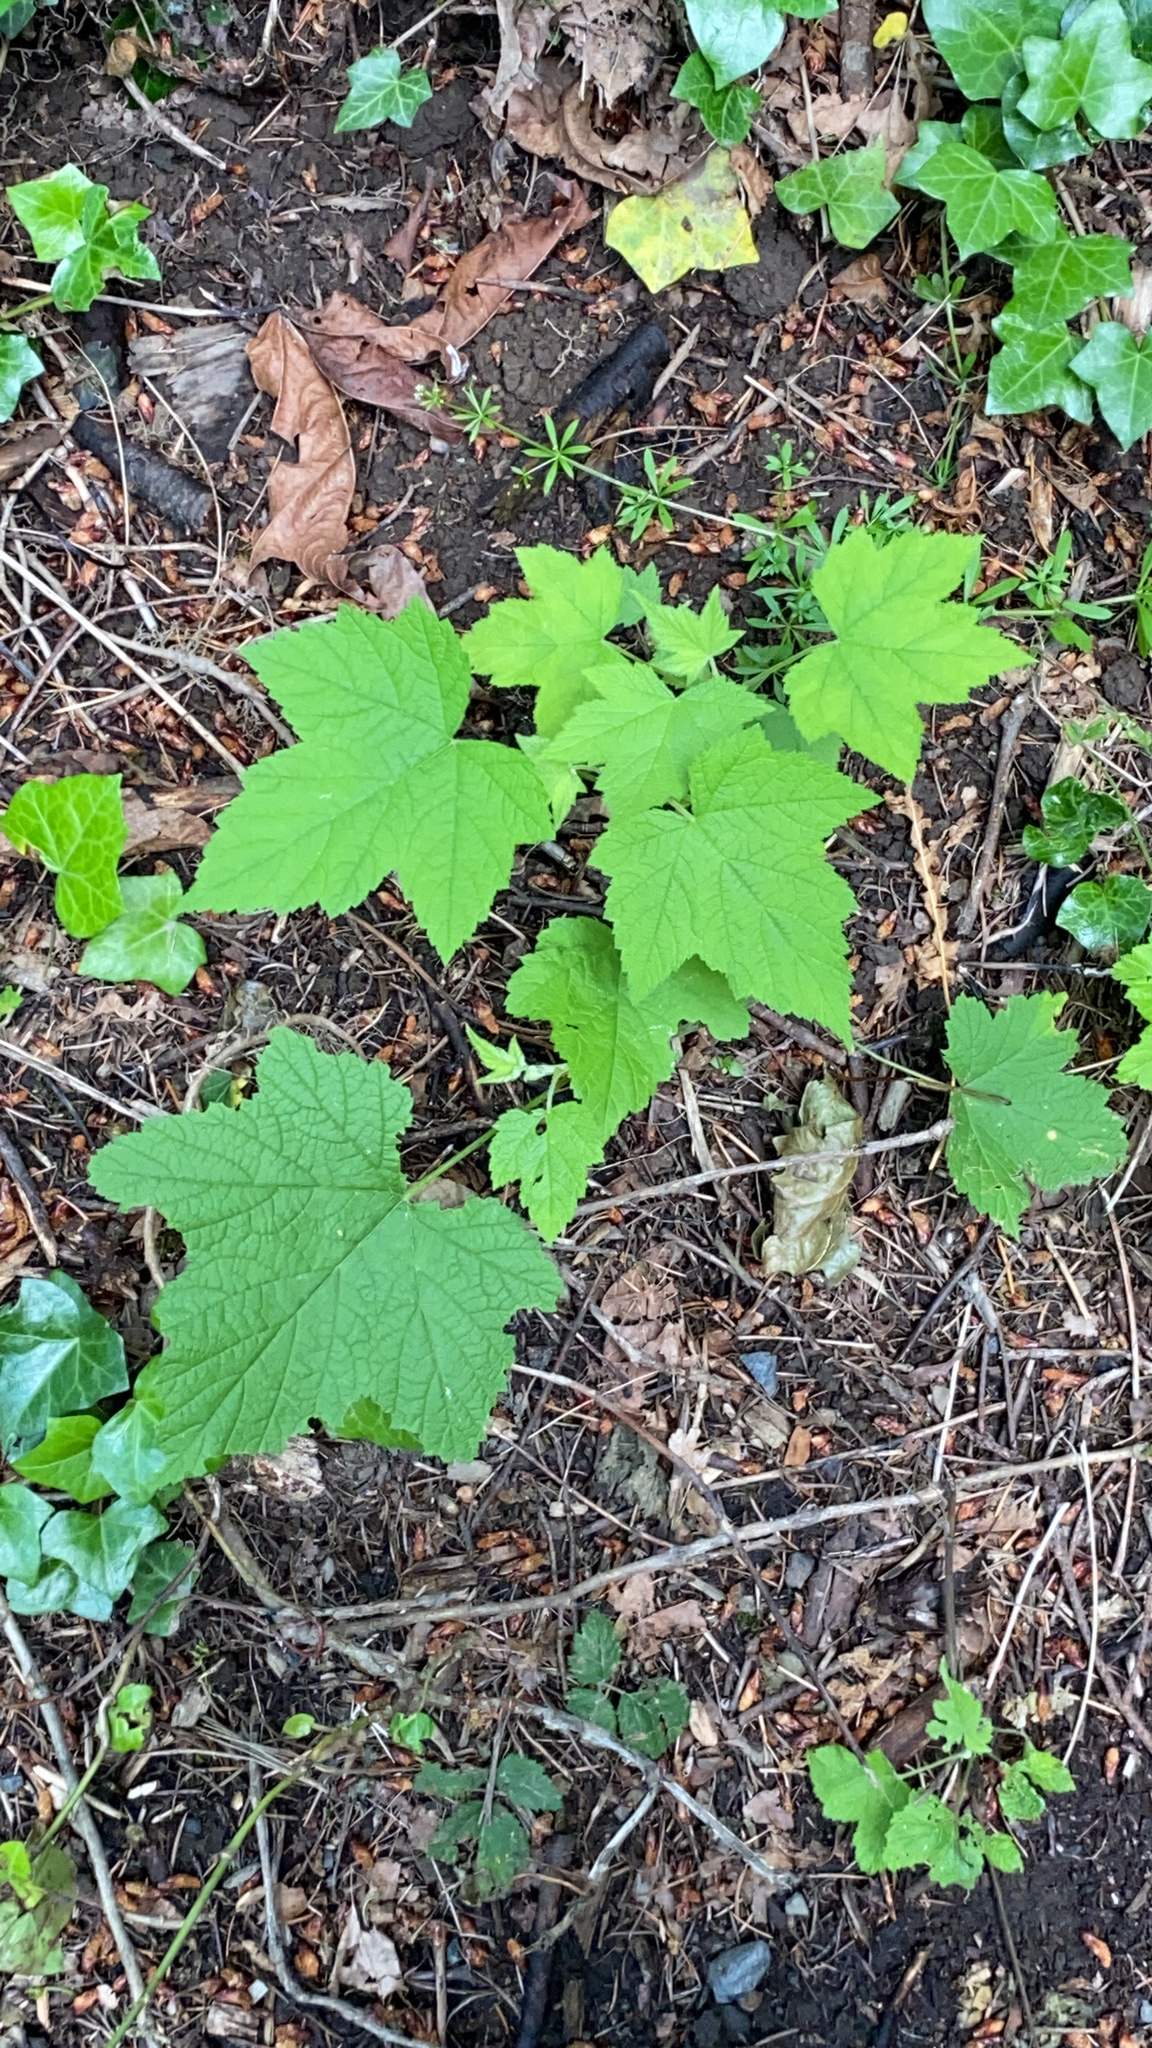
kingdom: Plantae
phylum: Tracheophyta
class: Magnoliopsida
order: Rosales
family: Rosaceae
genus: Rubus
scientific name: Rubus parviflorus
